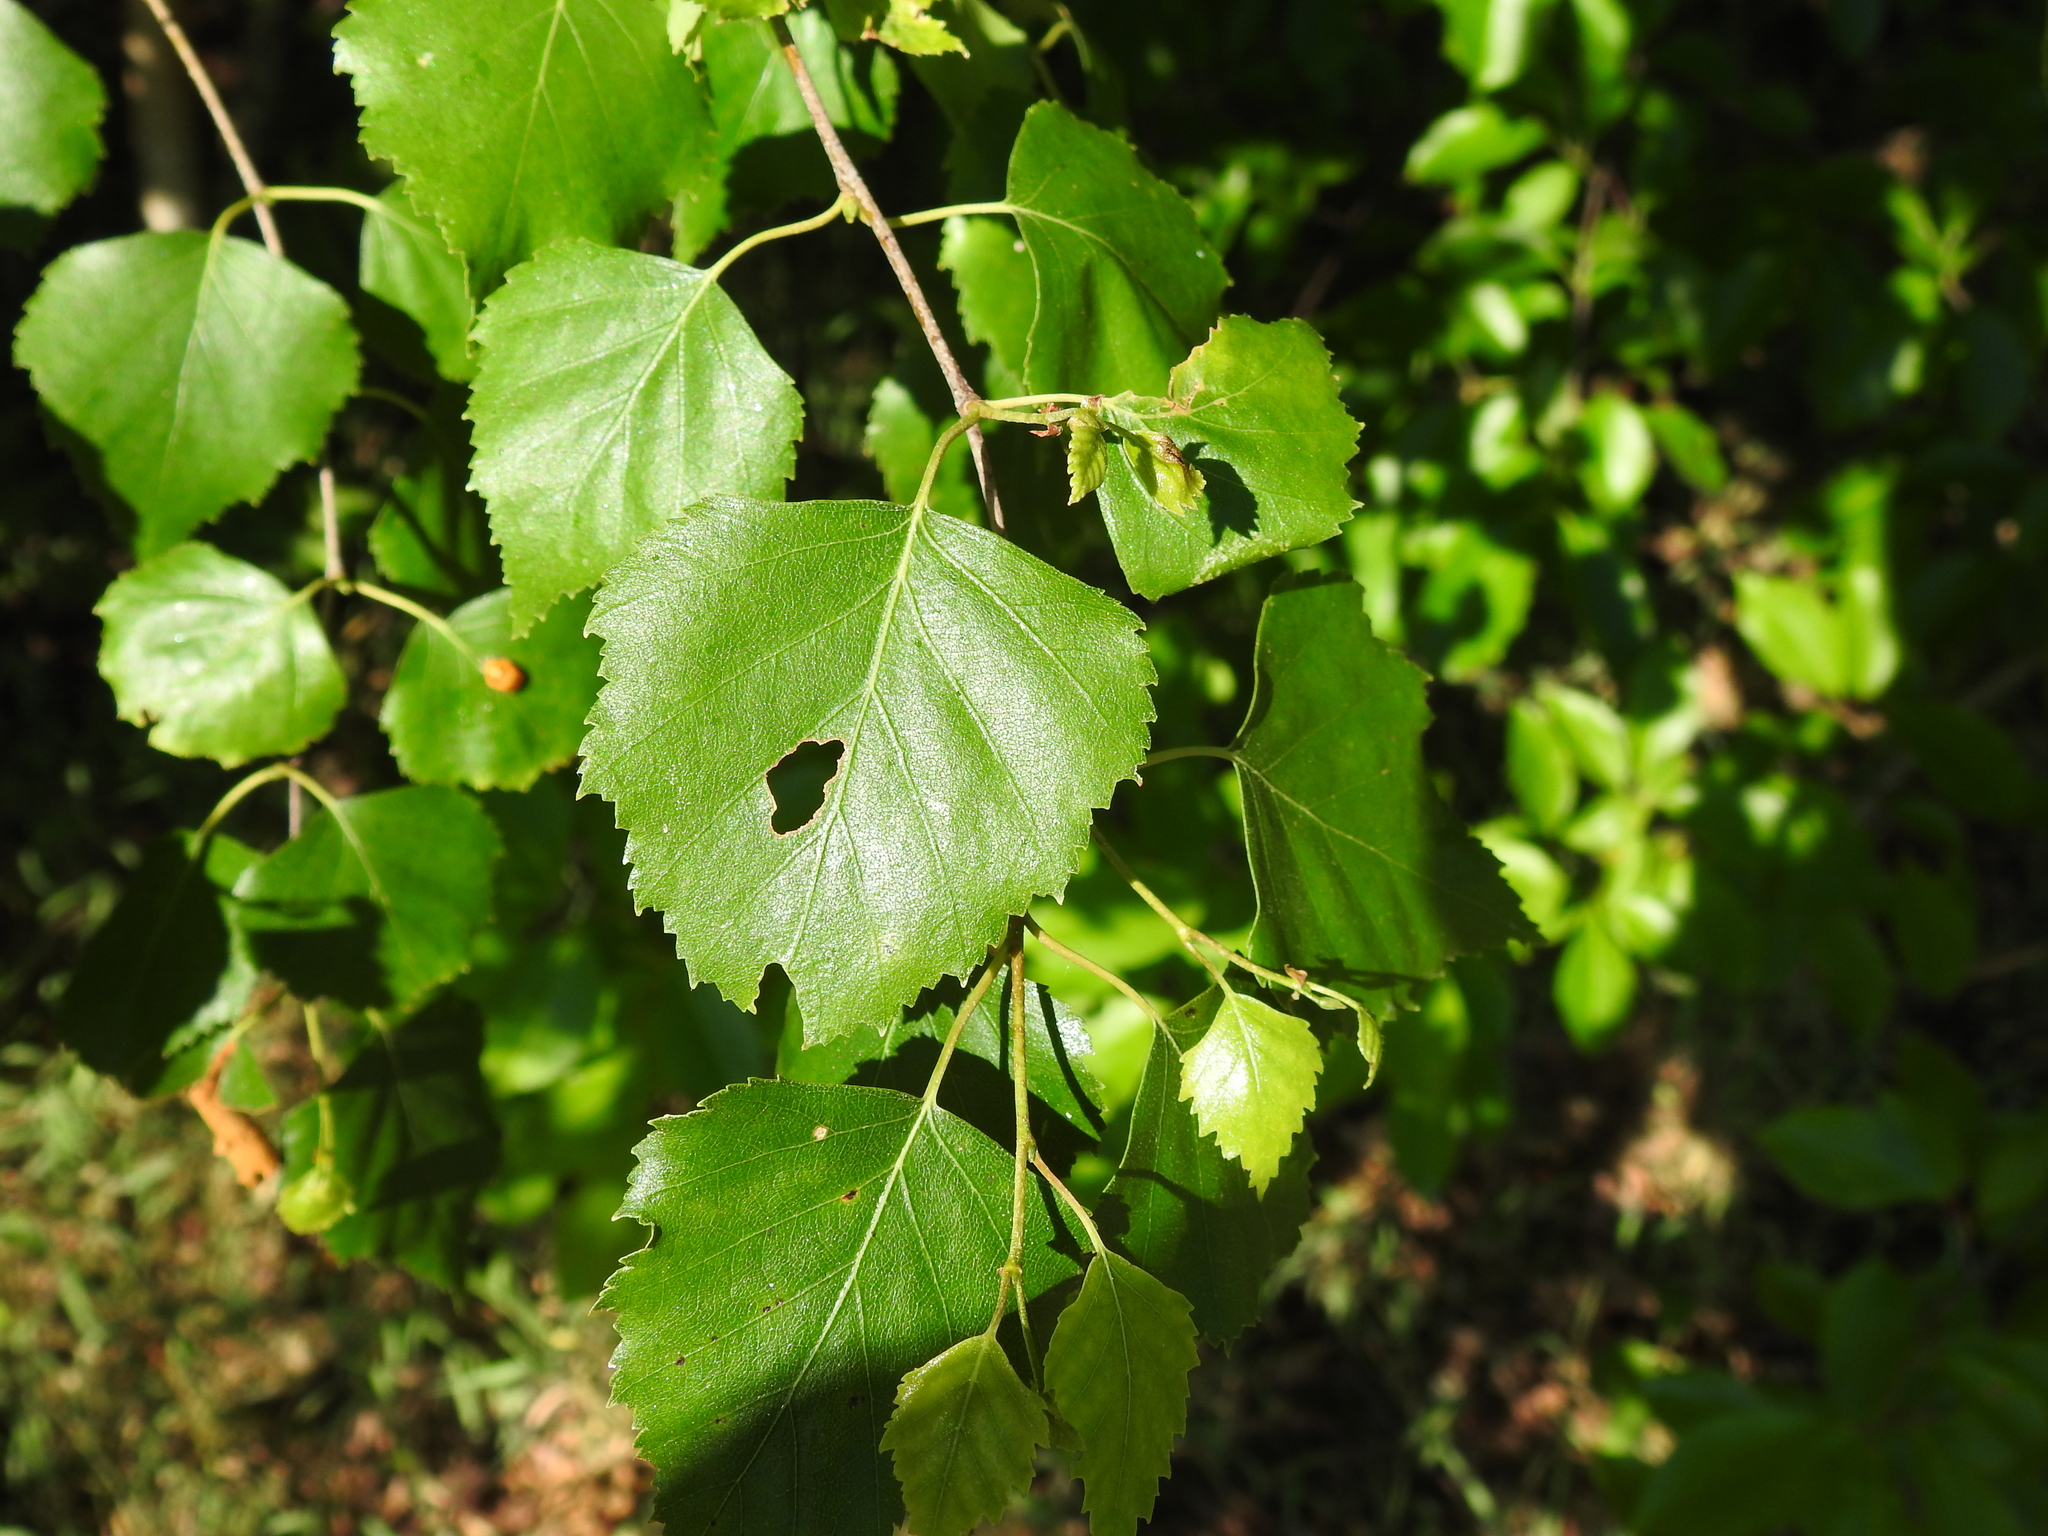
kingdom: Plantae
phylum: Tracheophyta
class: Magnoliopsida
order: Fagales
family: Betulaceae
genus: Betula
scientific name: Betula pendula
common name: Silver birch
